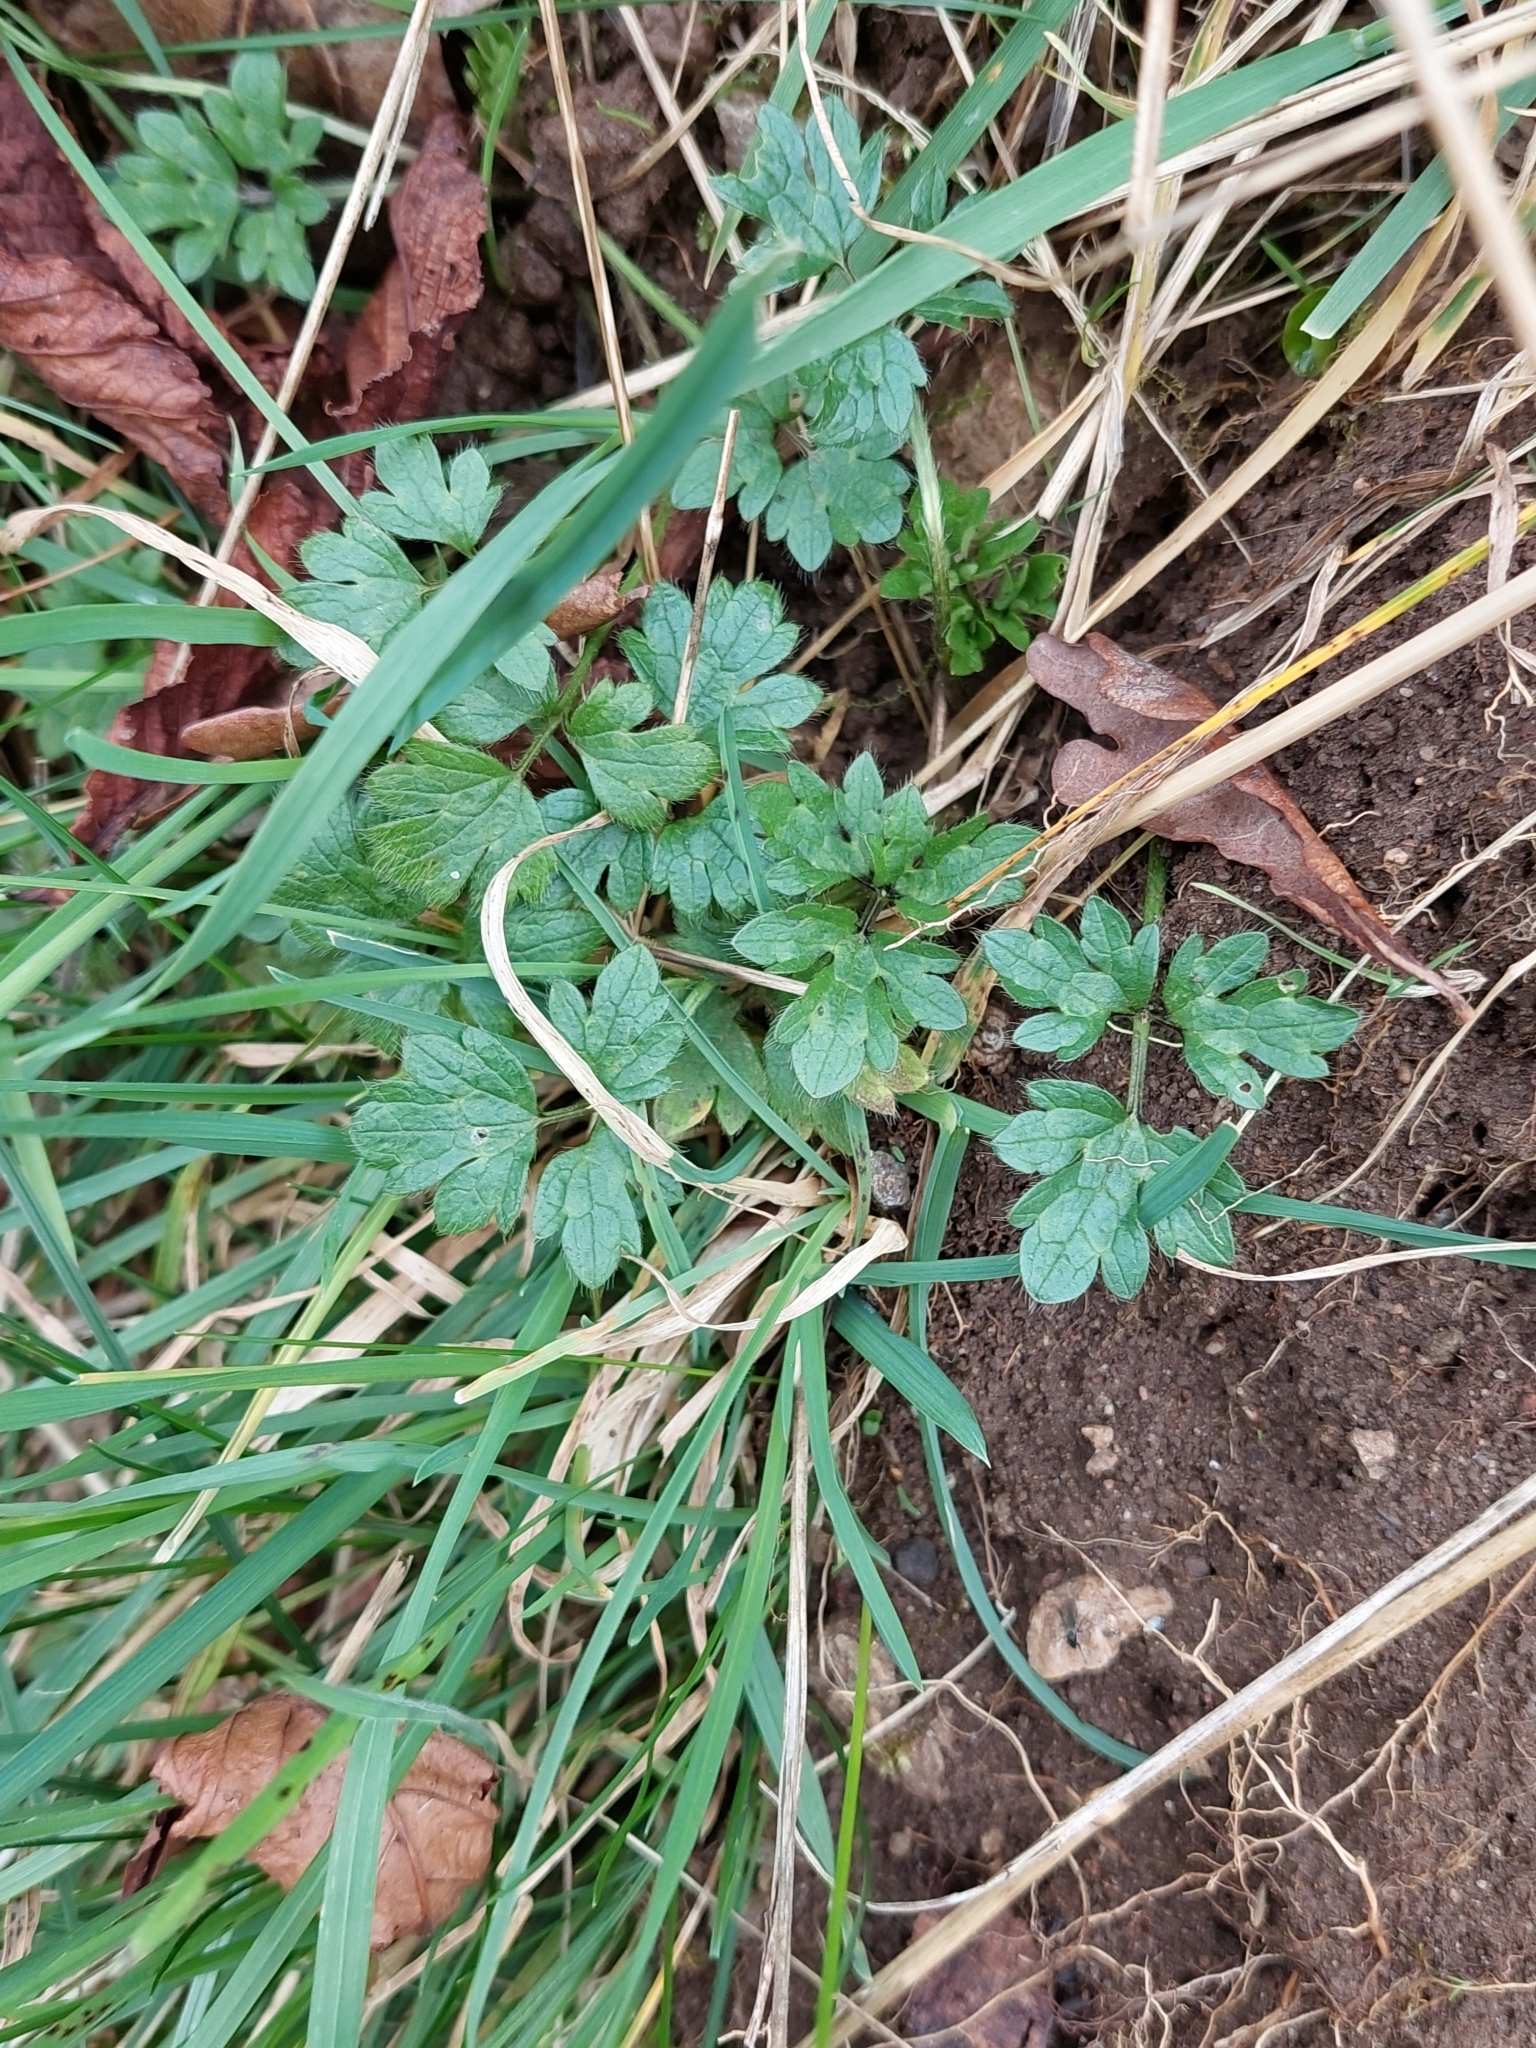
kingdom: Plantae
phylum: Tracheophyta
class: Magnoliopsida
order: Ranunculales
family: Ranunculaceae
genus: Ranunculus
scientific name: Ranunculus repens
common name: Creeping buttercup
